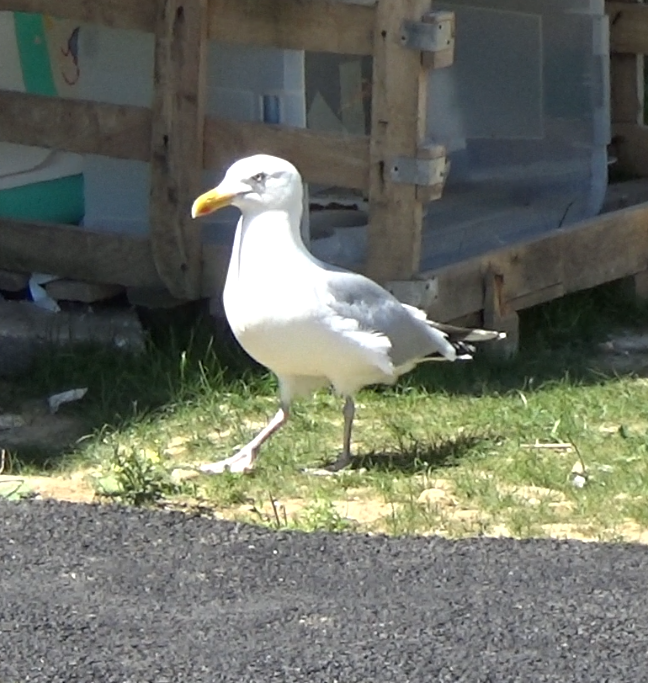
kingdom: Animalia
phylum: Chordata
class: Aves
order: Charadriiformes
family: Laridae
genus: Larus
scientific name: Larus argentatus
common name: Herring gull
